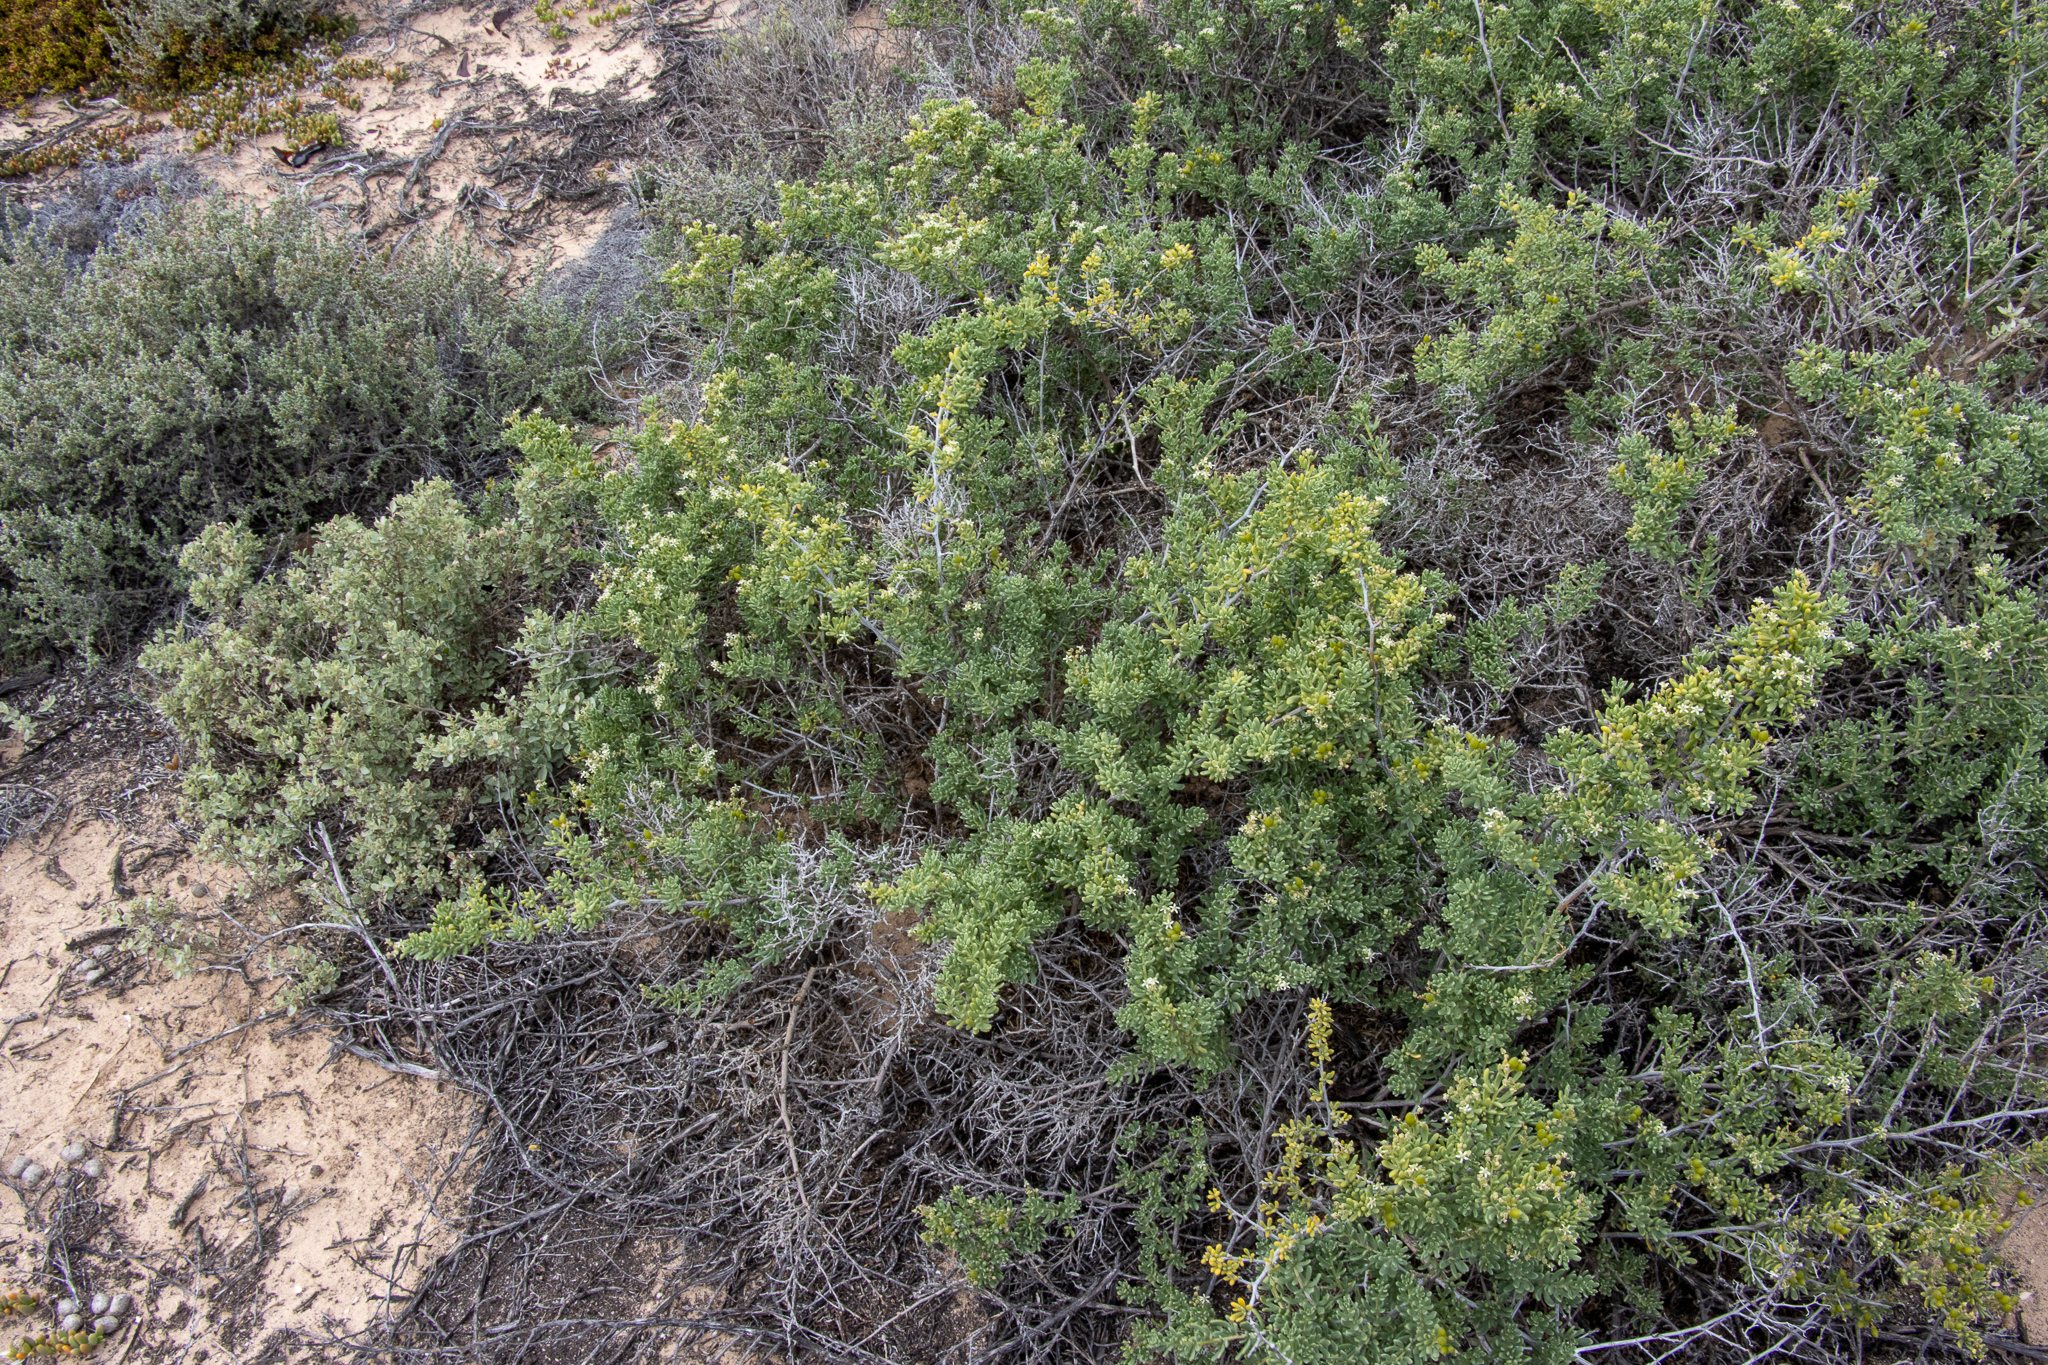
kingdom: Plantae
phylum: Tracheophyta
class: Magnoliopsida
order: Sapindales
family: Nitrariaceae
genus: Nitraria
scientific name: Nitraria billardierei
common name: Dillonbush
